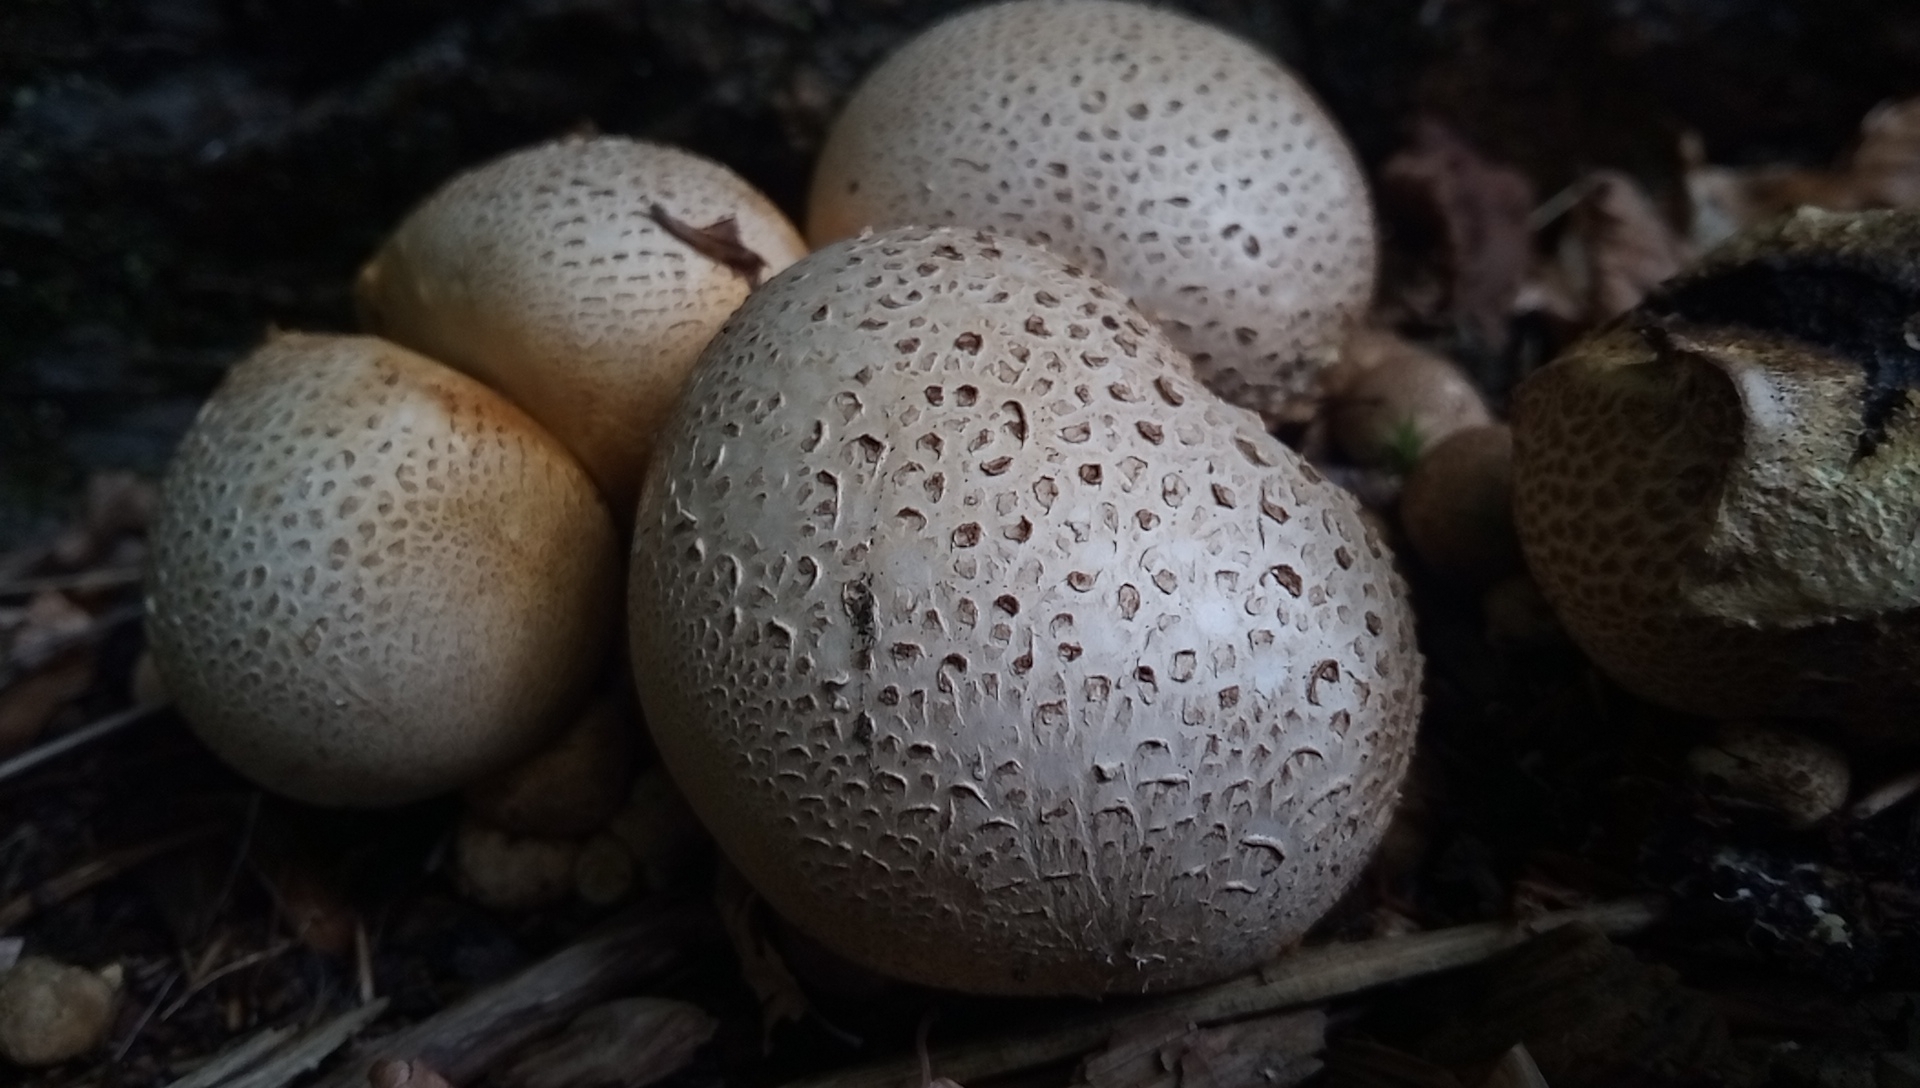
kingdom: Fungi
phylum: Basidiomycota
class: Agaricomycetes
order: Boletales
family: Sclerodermataceae
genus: Scleroderma
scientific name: Scleroderma citrinum
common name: Common earthball
